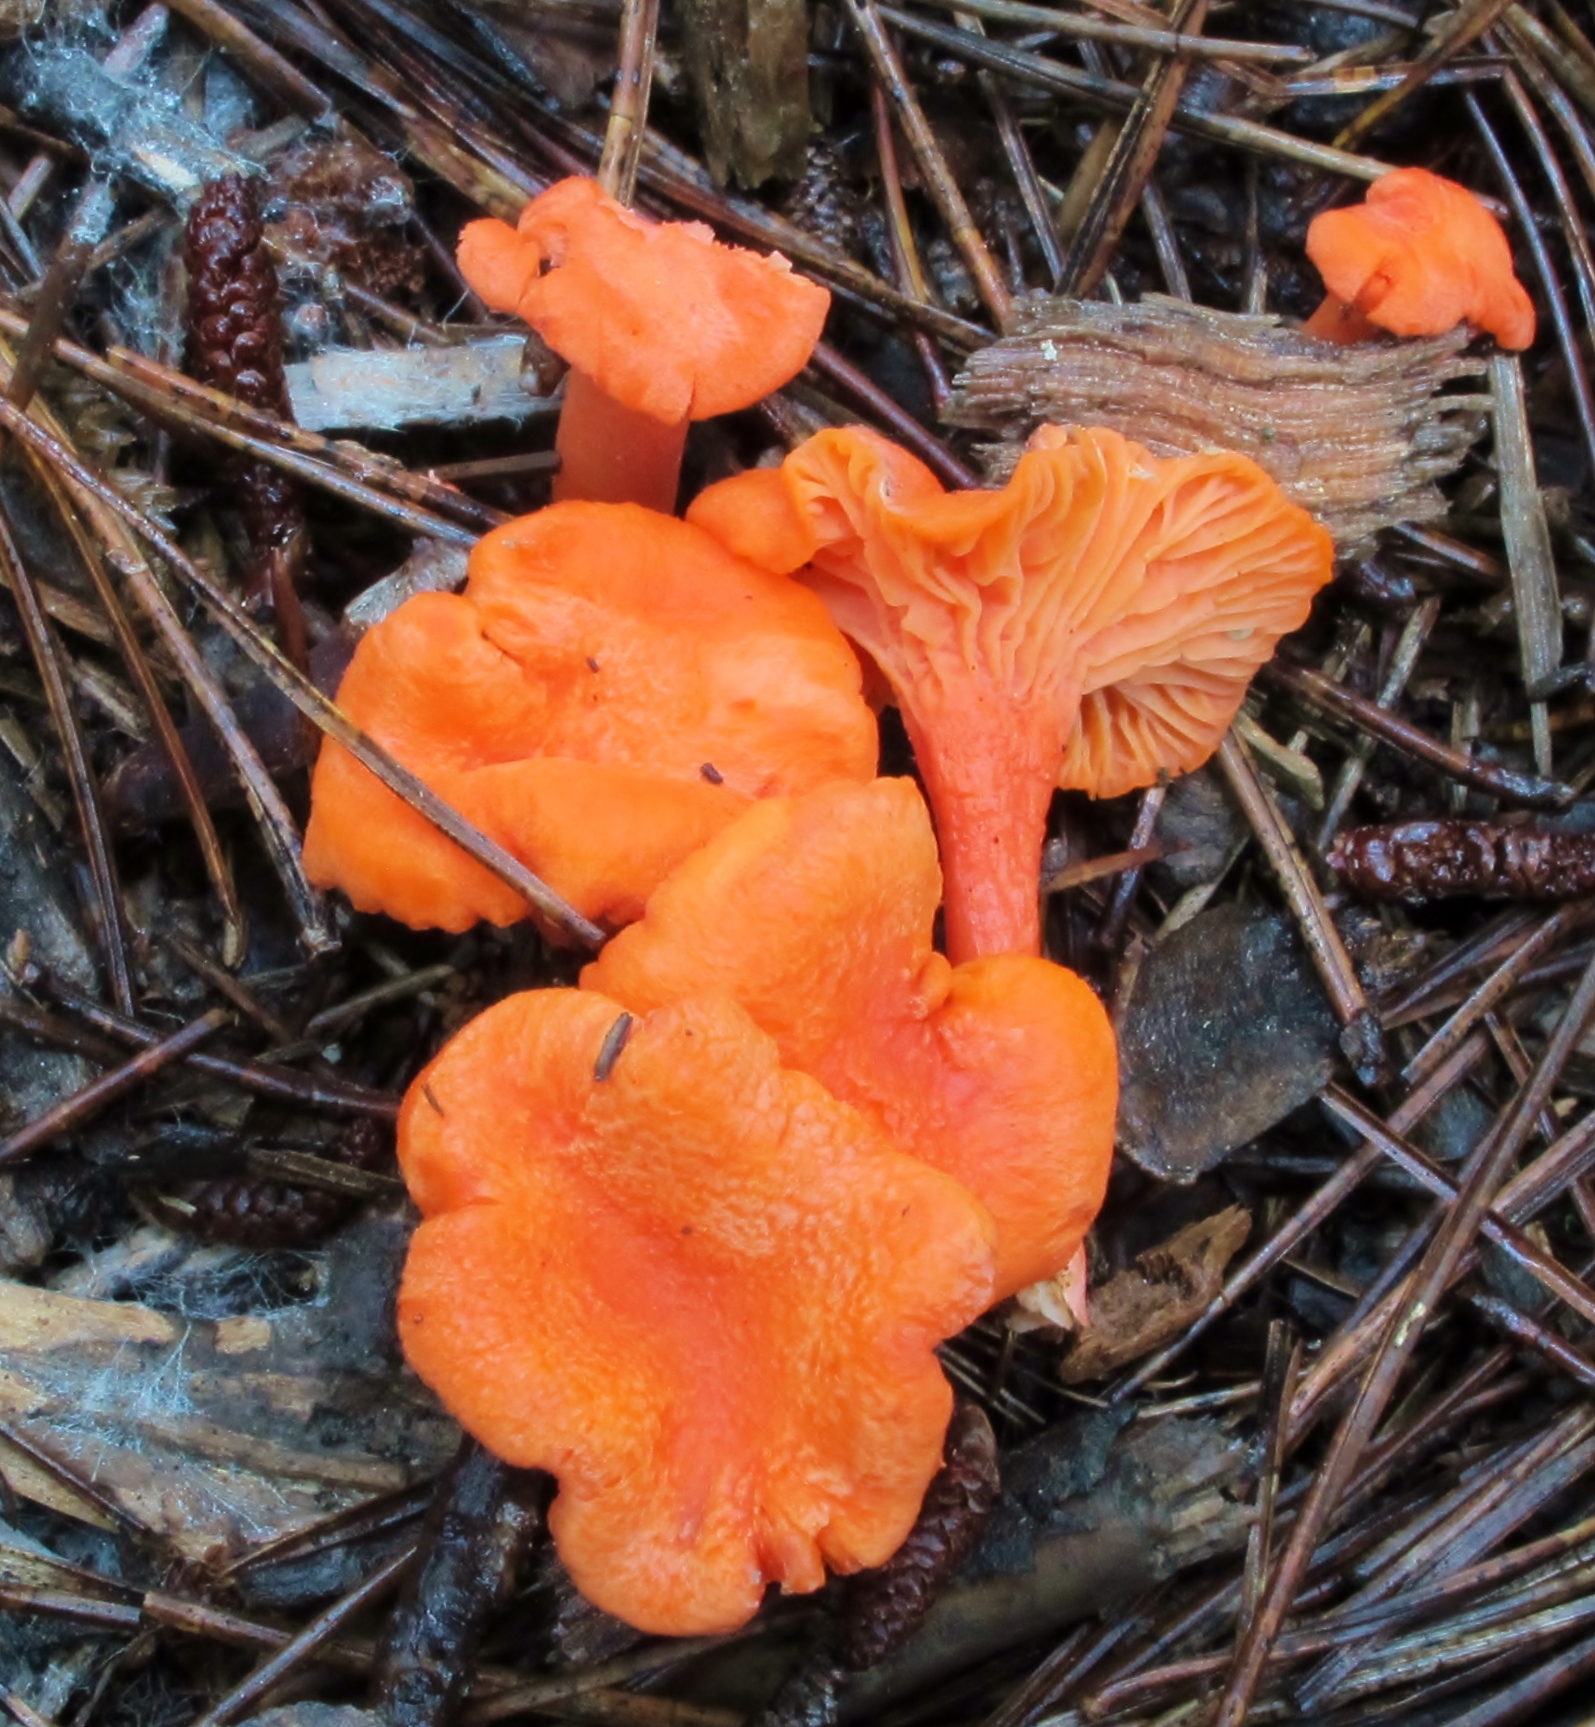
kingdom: Fungi
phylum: Basidiomycota
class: Agaricomycetes
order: Cantharellales
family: Hydnaceae
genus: Cantharellus
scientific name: Cantharellus cinnabarinus
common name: Cinnabar chanterelle
